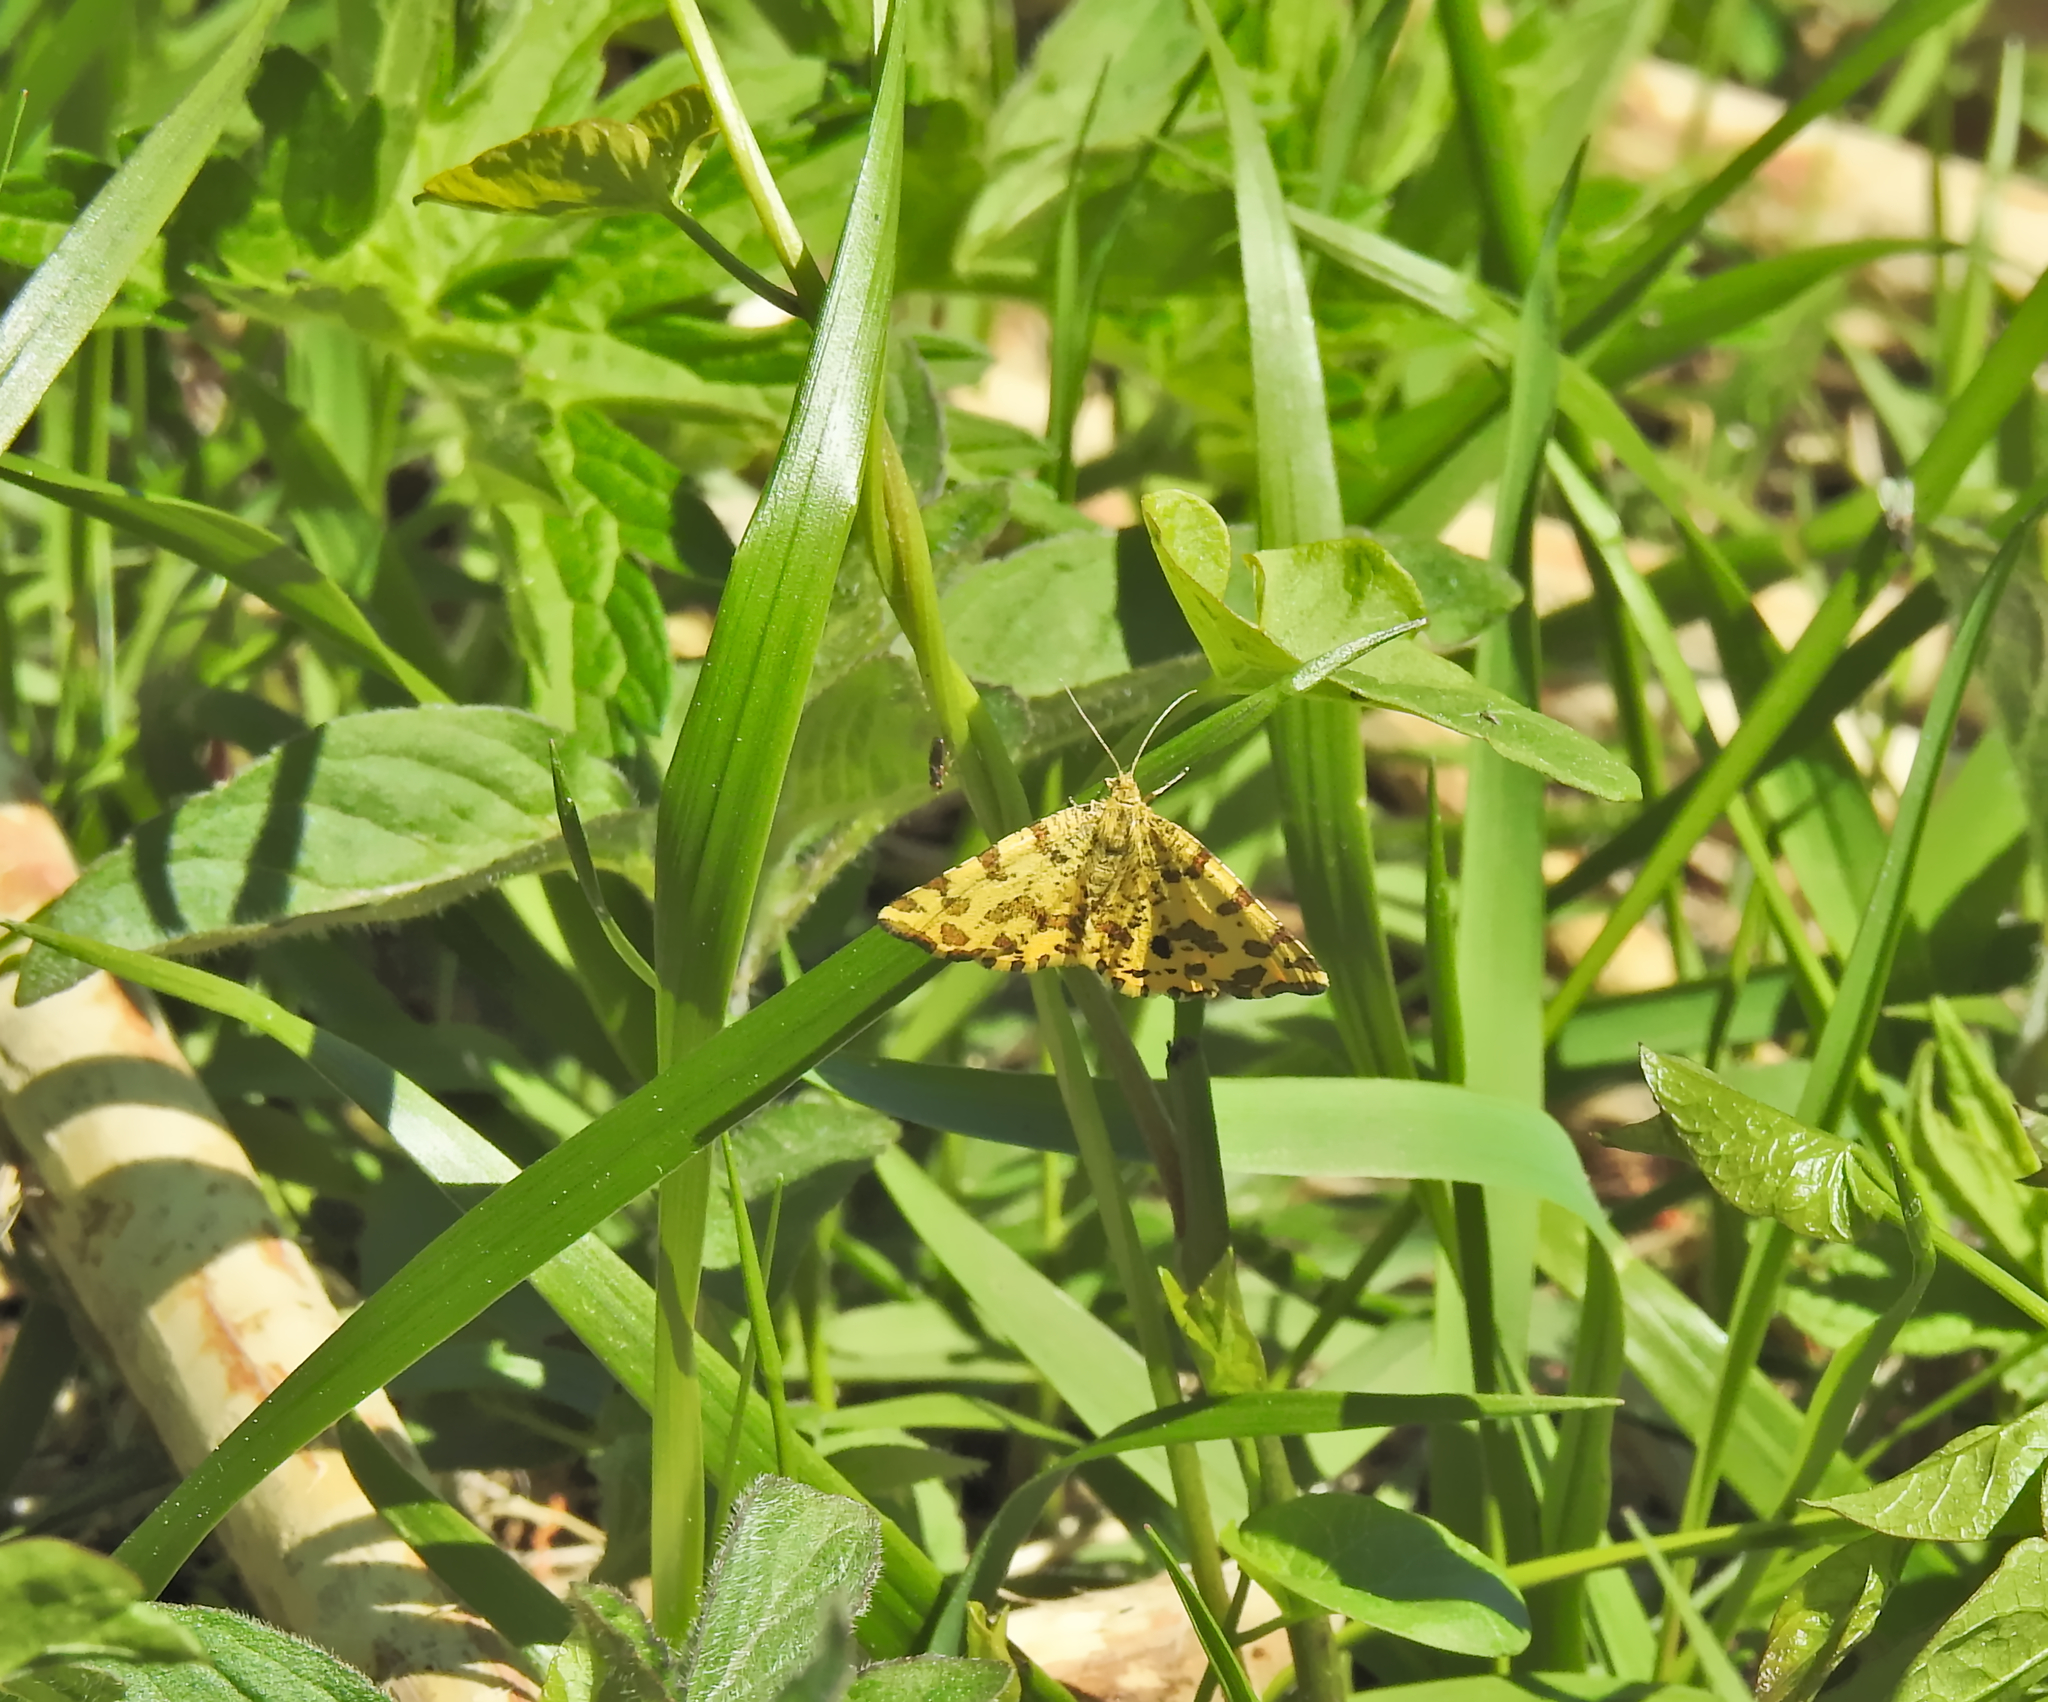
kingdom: Animalia
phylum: Arthropoda
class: Insecta
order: Lepidoptera
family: Geometridae
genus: Pseudopanthera
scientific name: Pseudopanthera macularia
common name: Speckled yellow
